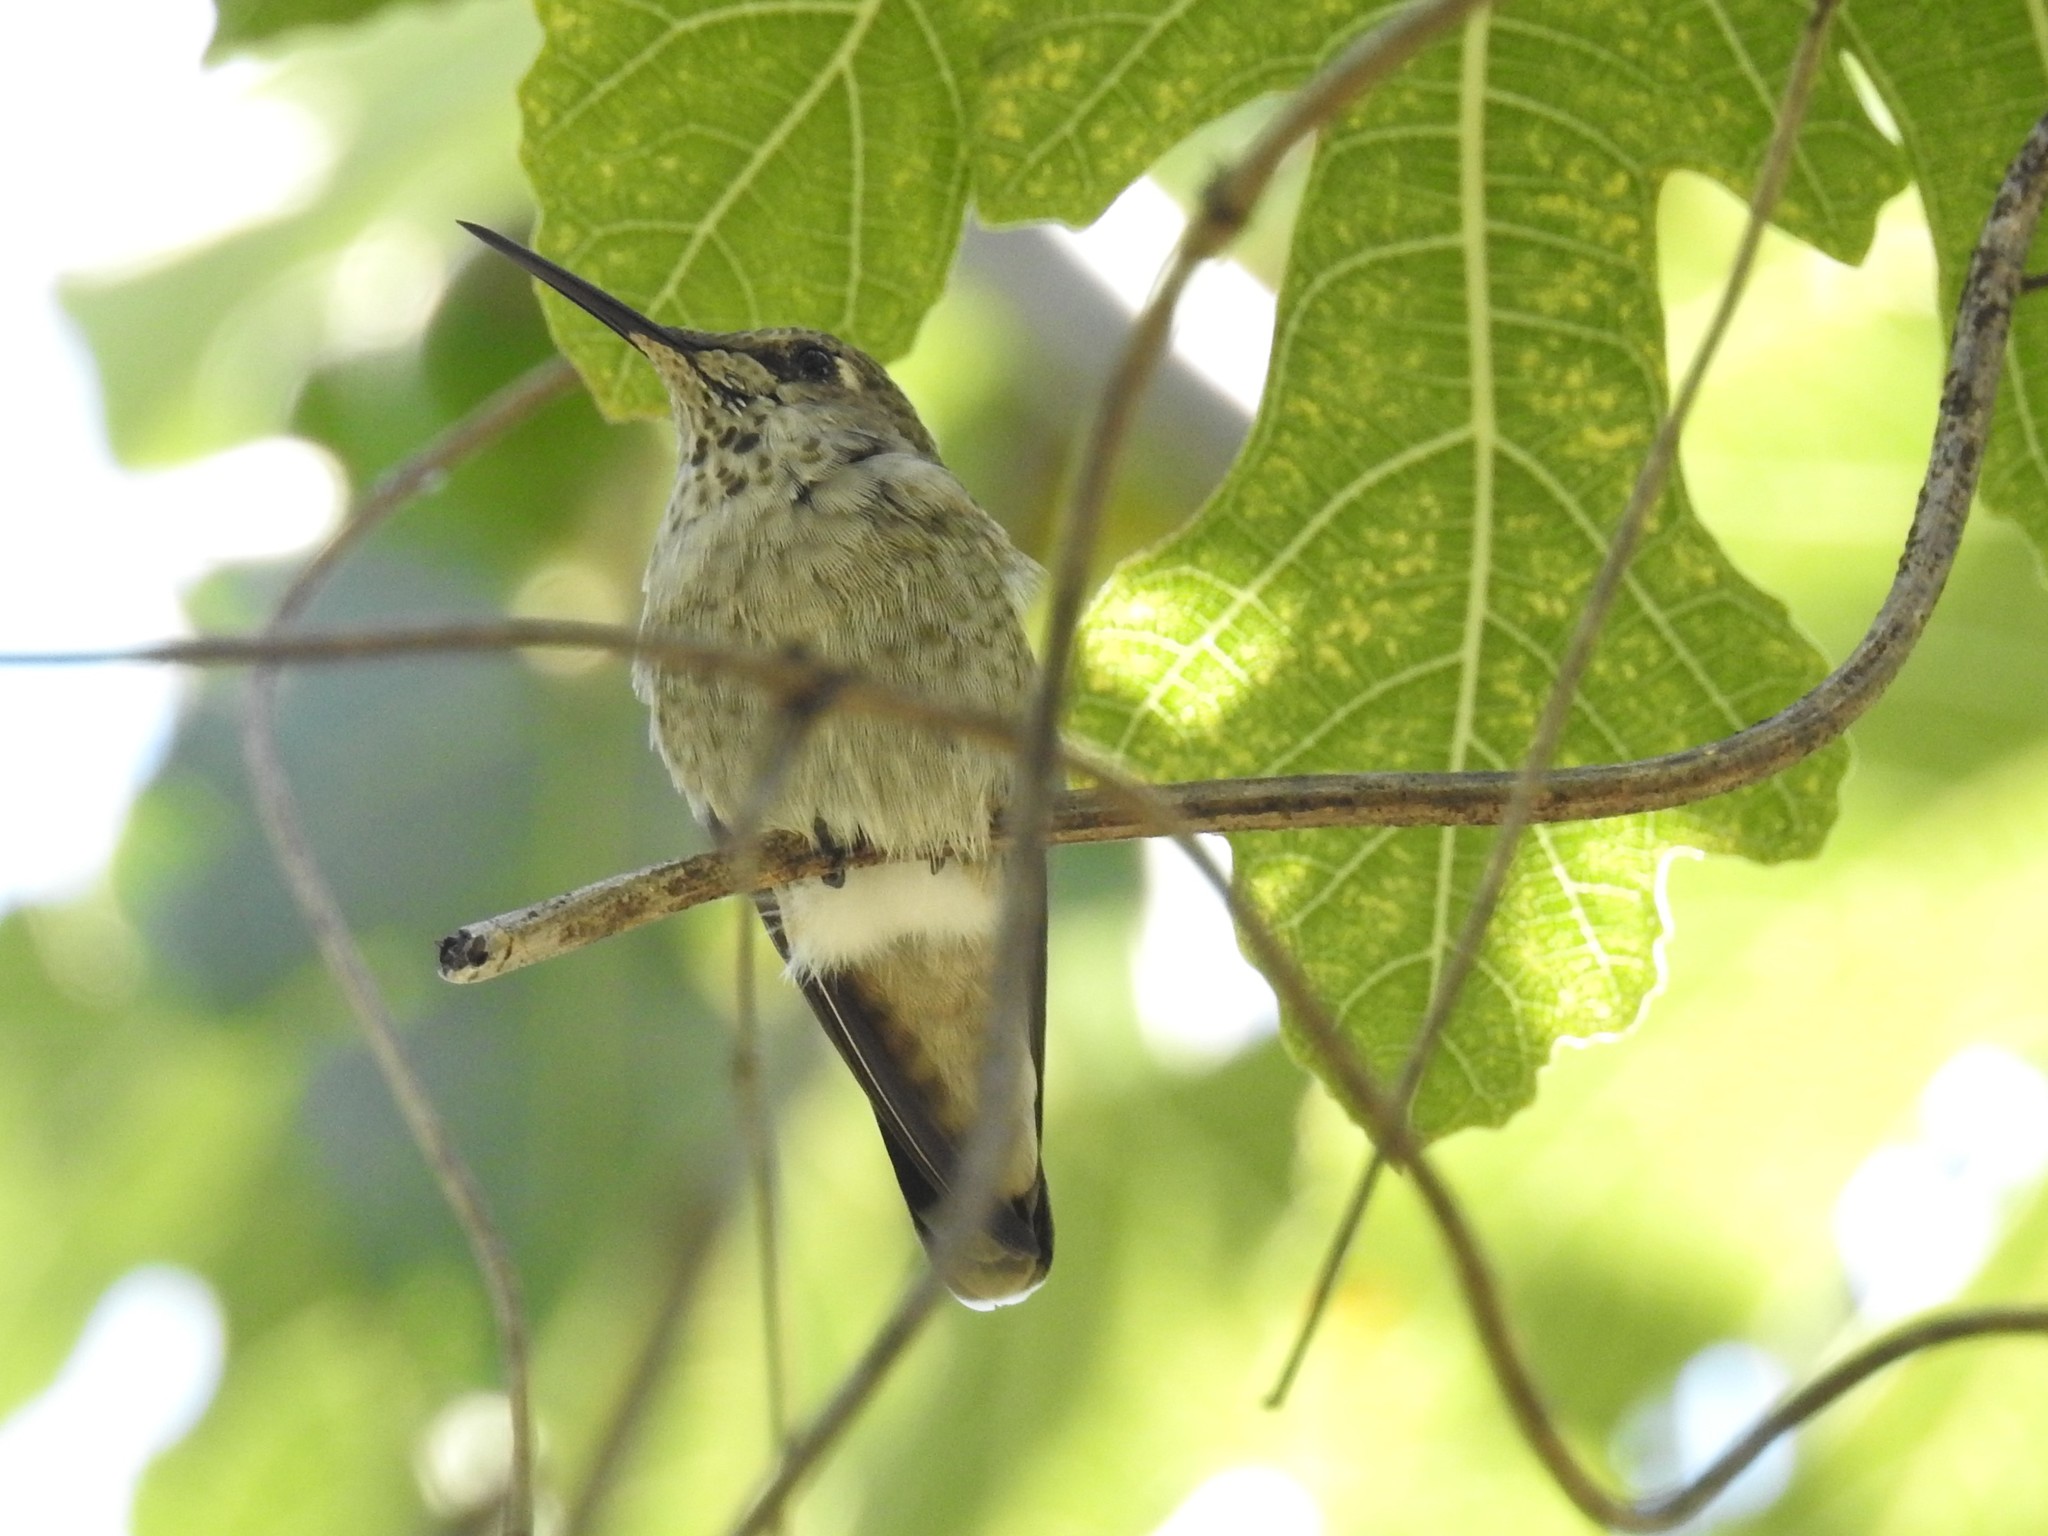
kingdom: Animalia
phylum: Chordata
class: Aves
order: Apodiformes
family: Trochilidae
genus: Calypte
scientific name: Calypte anna
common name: Anna's hummingbird
